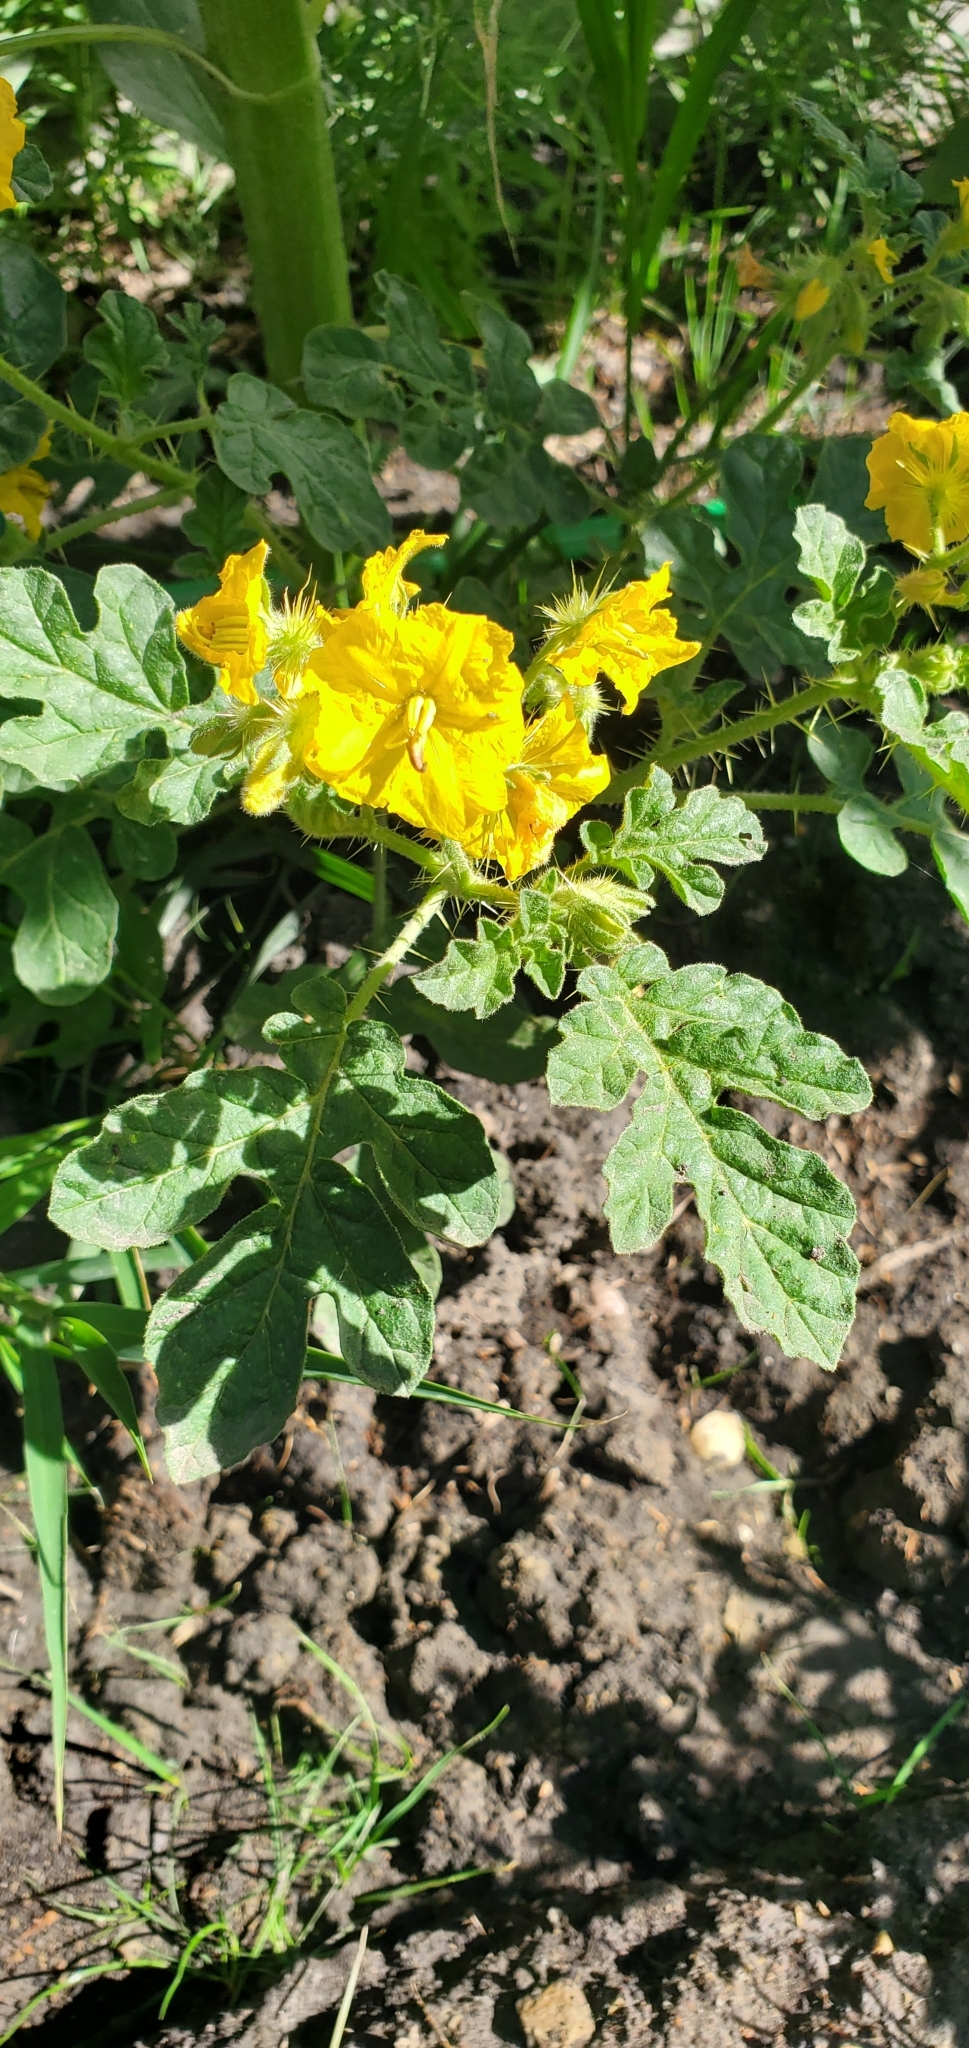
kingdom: Plantae
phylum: Tracheophyta
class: Magnoliopsida
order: Solanales
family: Solanaceae
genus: Solanum
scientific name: Solanum angustifolium
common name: Buffalobur nightshade
